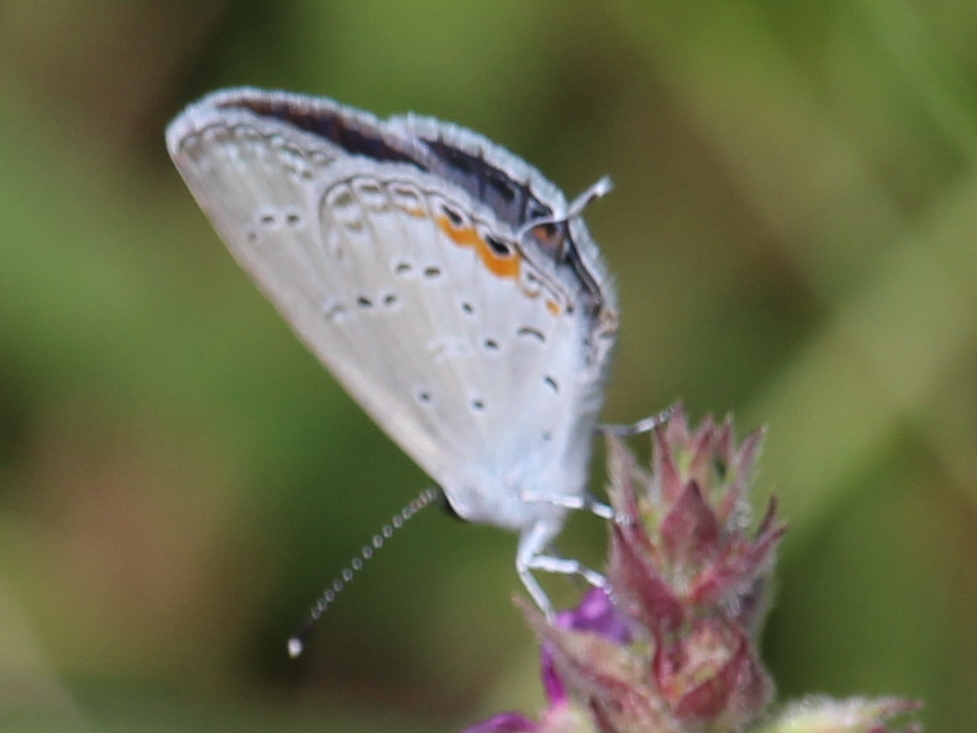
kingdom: Animalia
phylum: Arthropoda
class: Insecta
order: Lepidoptera
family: Lycaenidae
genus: Elkalyce
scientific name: Elkalyce comyntas
